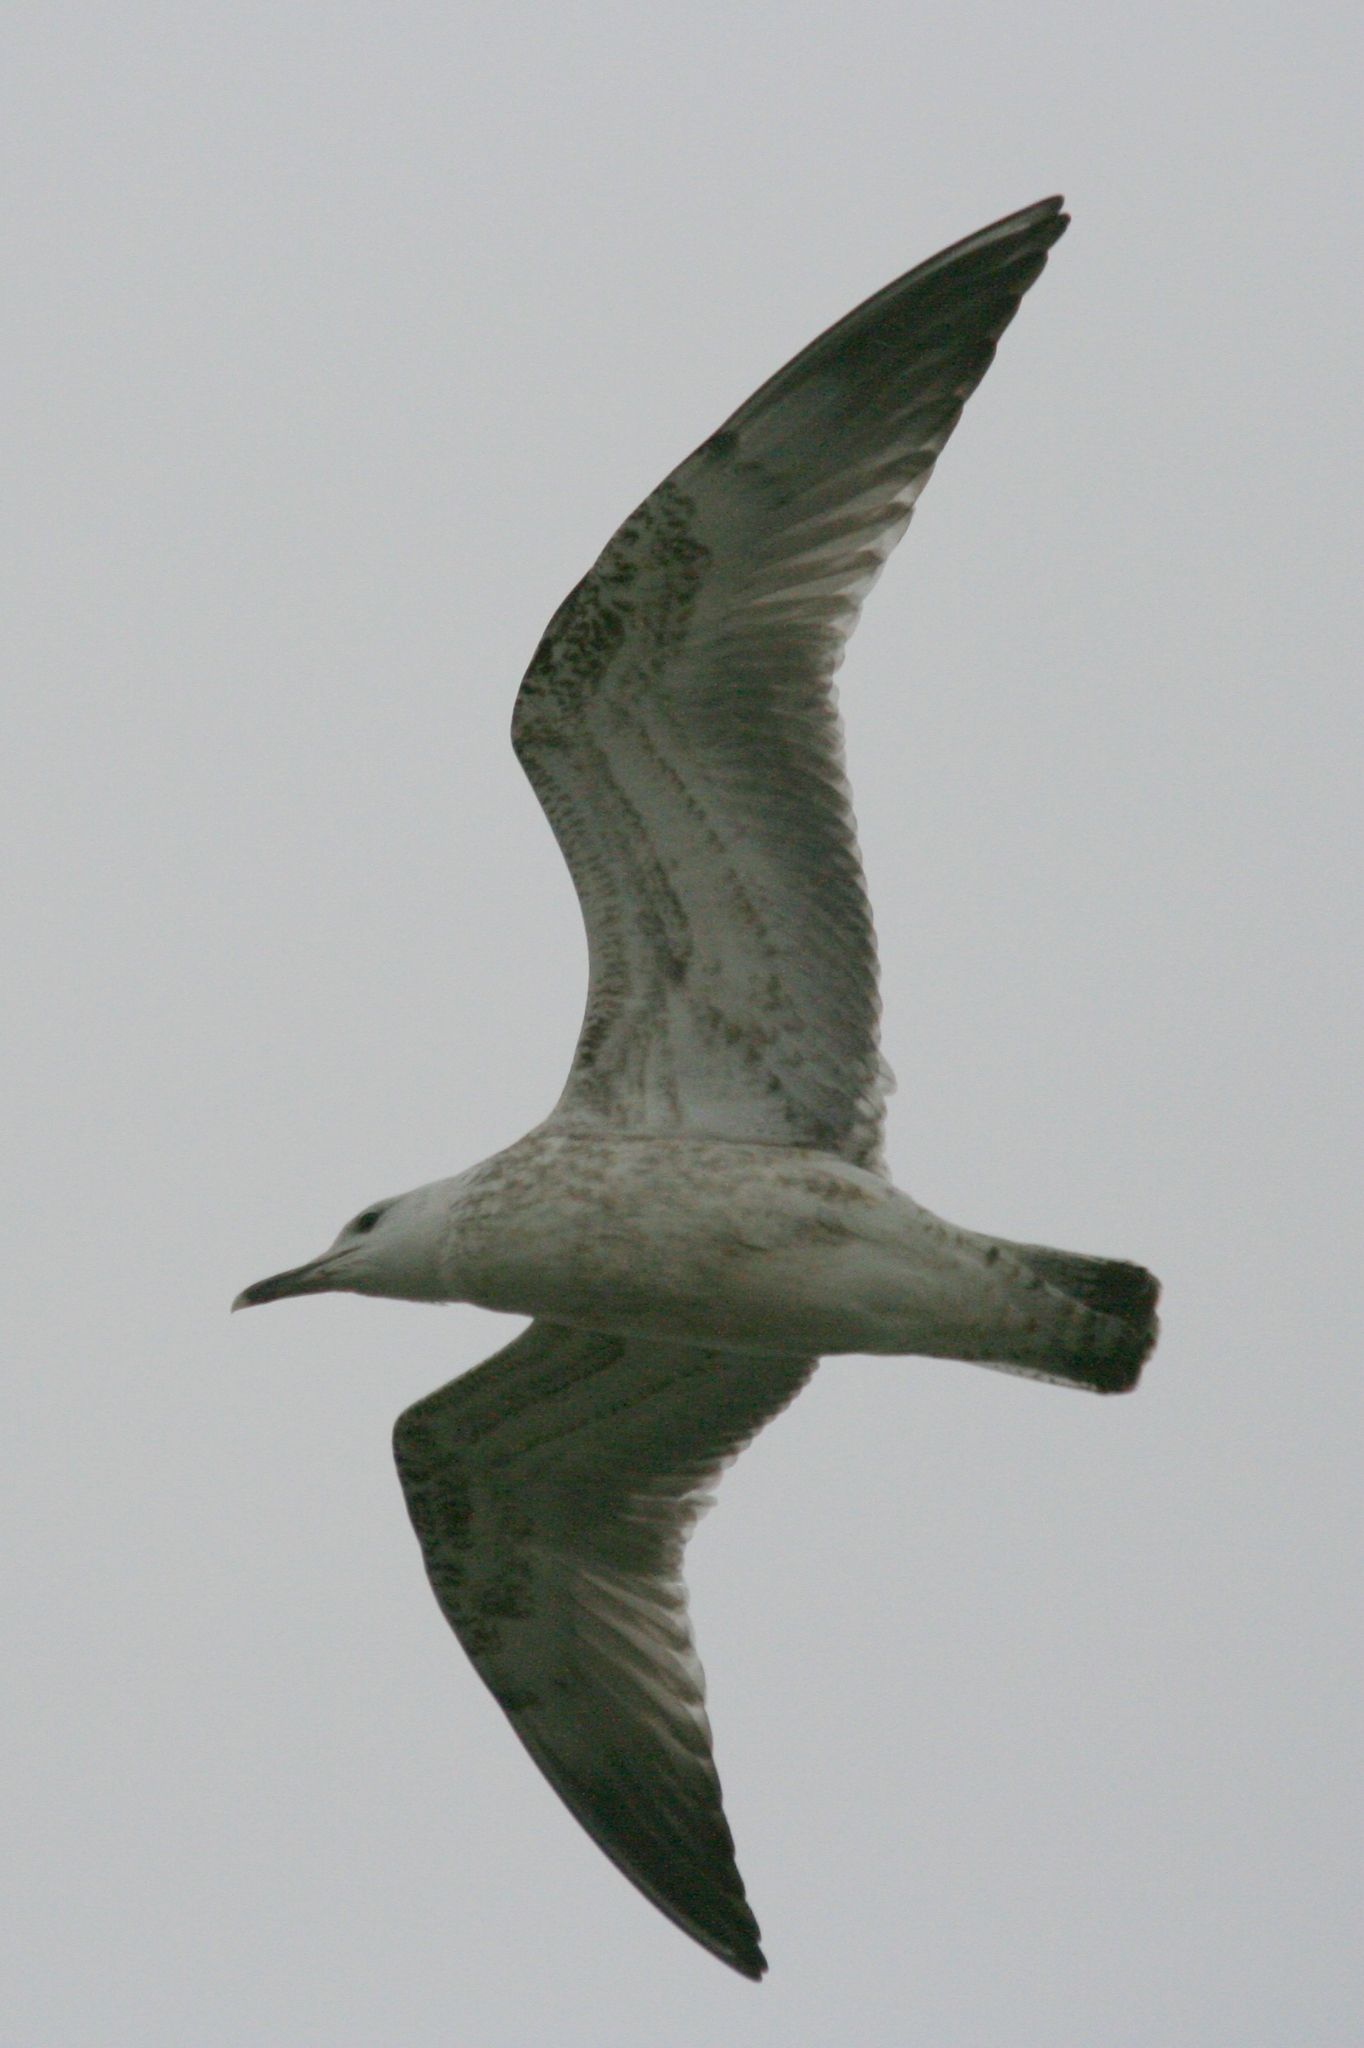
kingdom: Animalia
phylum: Chordata
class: Aves
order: Charadriiformes
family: Laridae
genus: Larus
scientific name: Larus cachinnans
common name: Caspian gull
